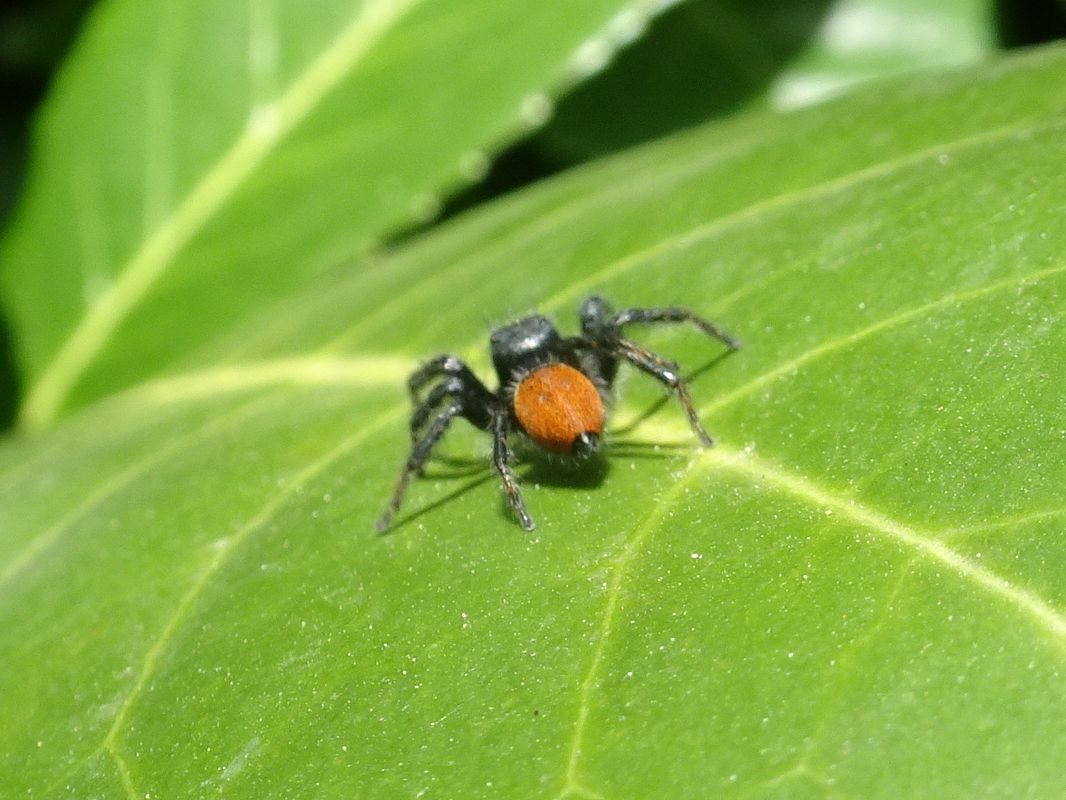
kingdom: Animalia
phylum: Arthropoda
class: Arachnida
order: Araneae
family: Salticidae
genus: Carrhotus
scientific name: Carrhotus xanthogramma
